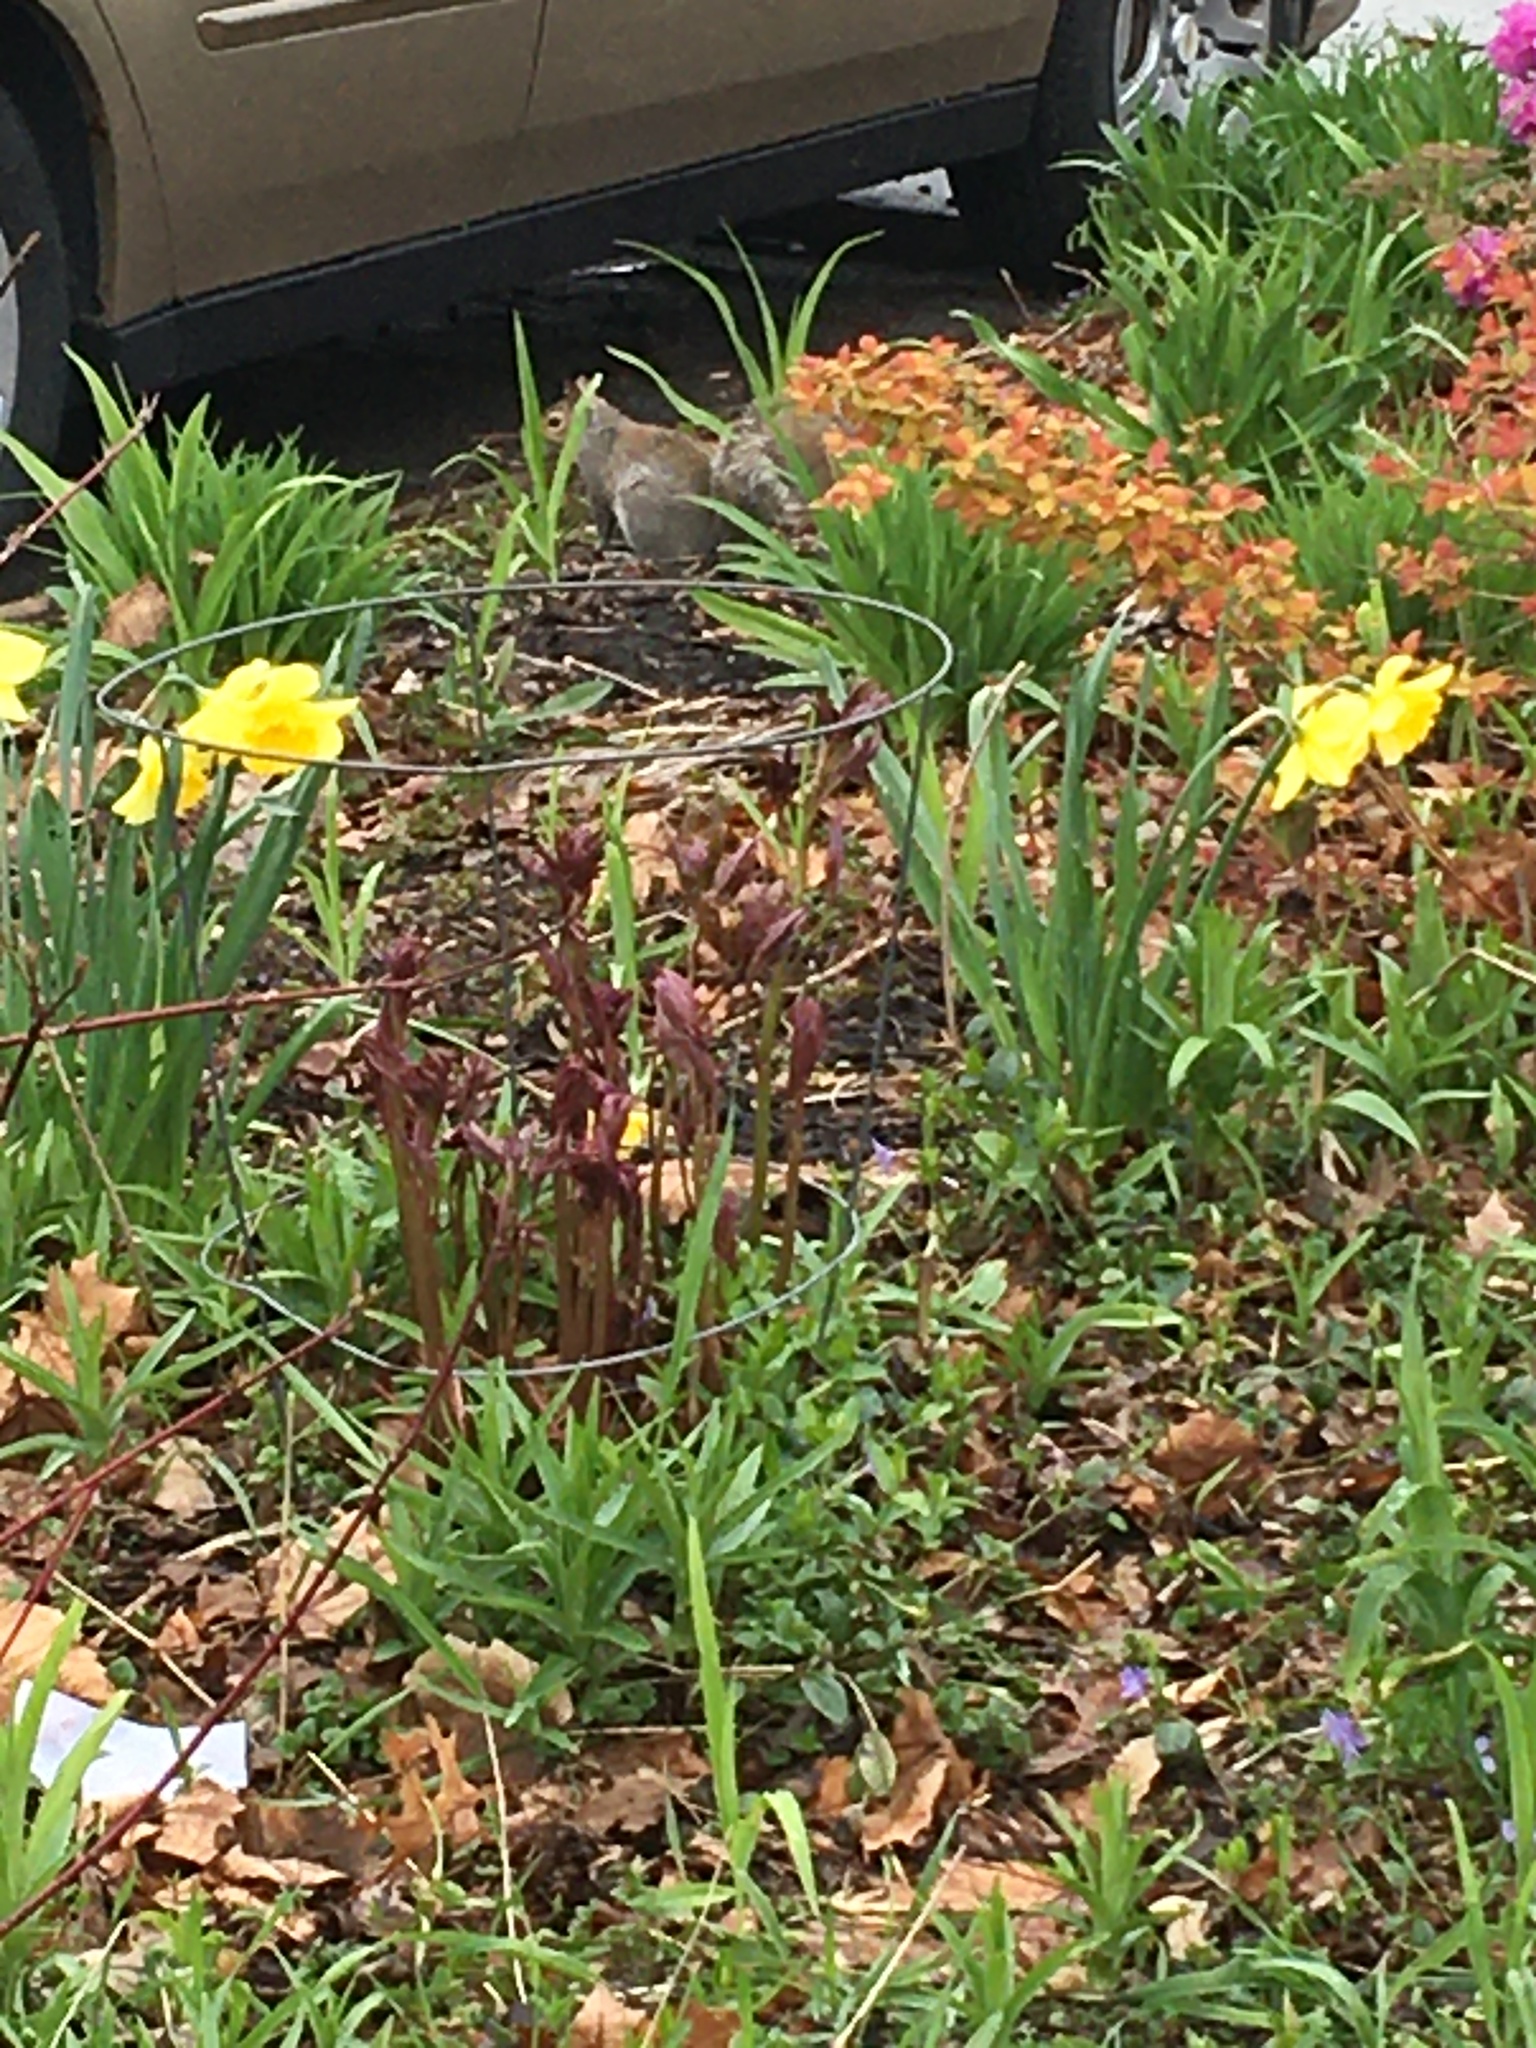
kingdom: Animalia
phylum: Chordata
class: Mammalia
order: Rodentia
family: Sciuridae
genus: Sciurus
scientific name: Sciurus carolinensis
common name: Eastern gray squirrel
